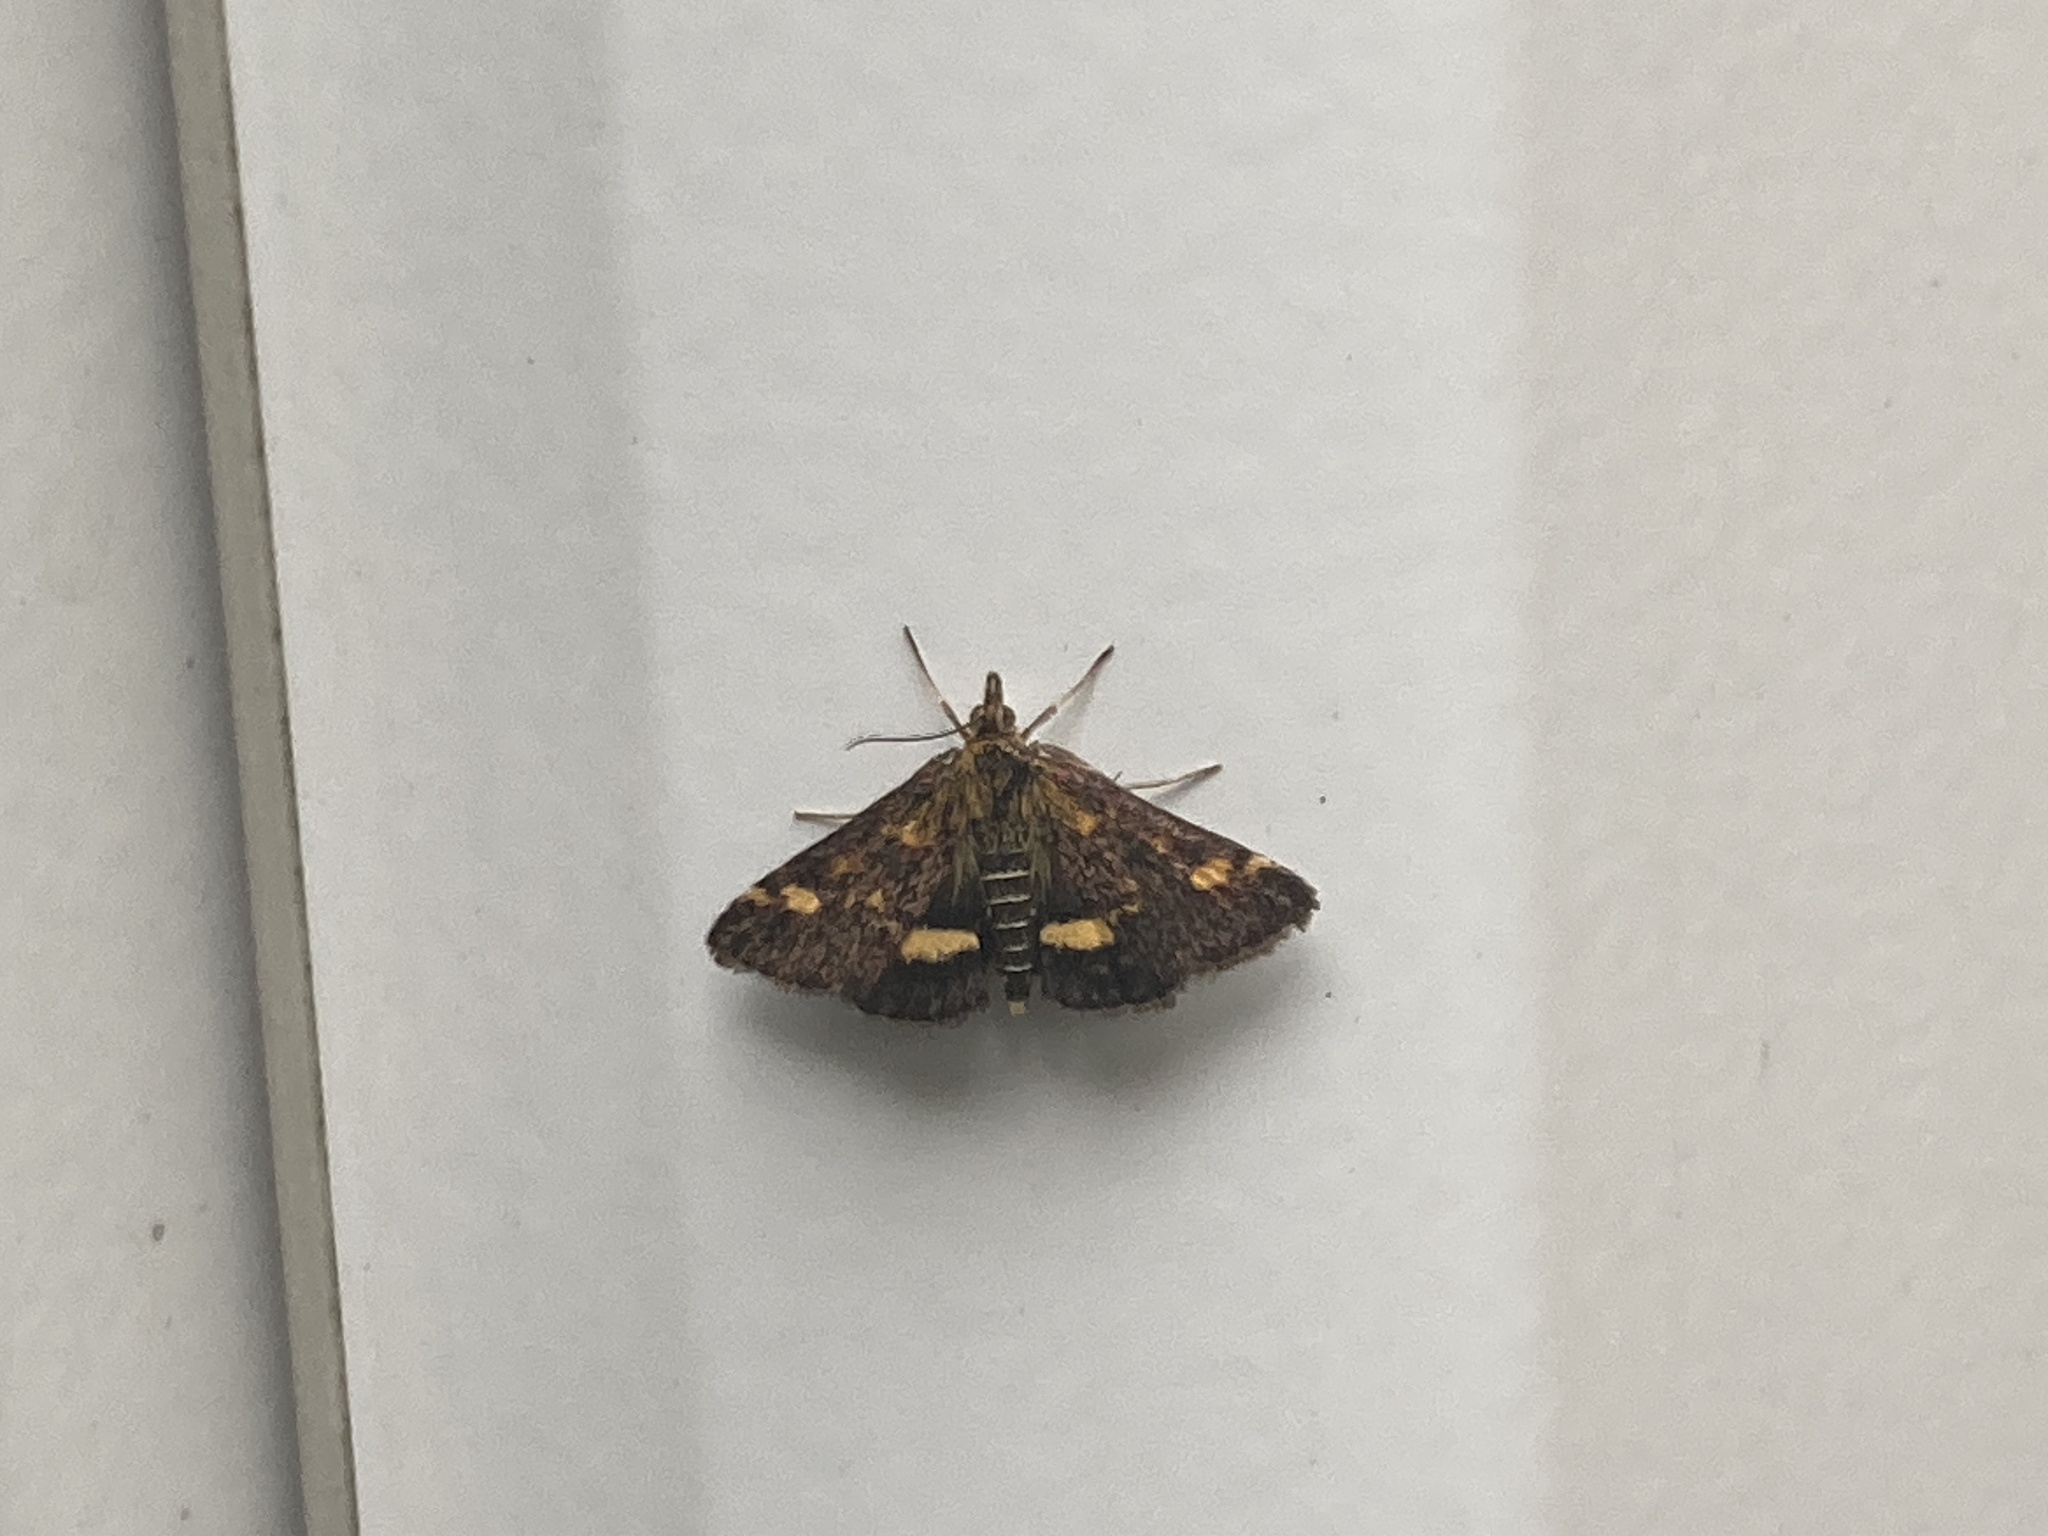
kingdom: Animalia
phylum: Arthropoda
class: Insecta
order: Lepidoptera
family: Crambidae
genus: Pyrausta
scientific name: Pyrausta aurata
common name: Small purple & gold
